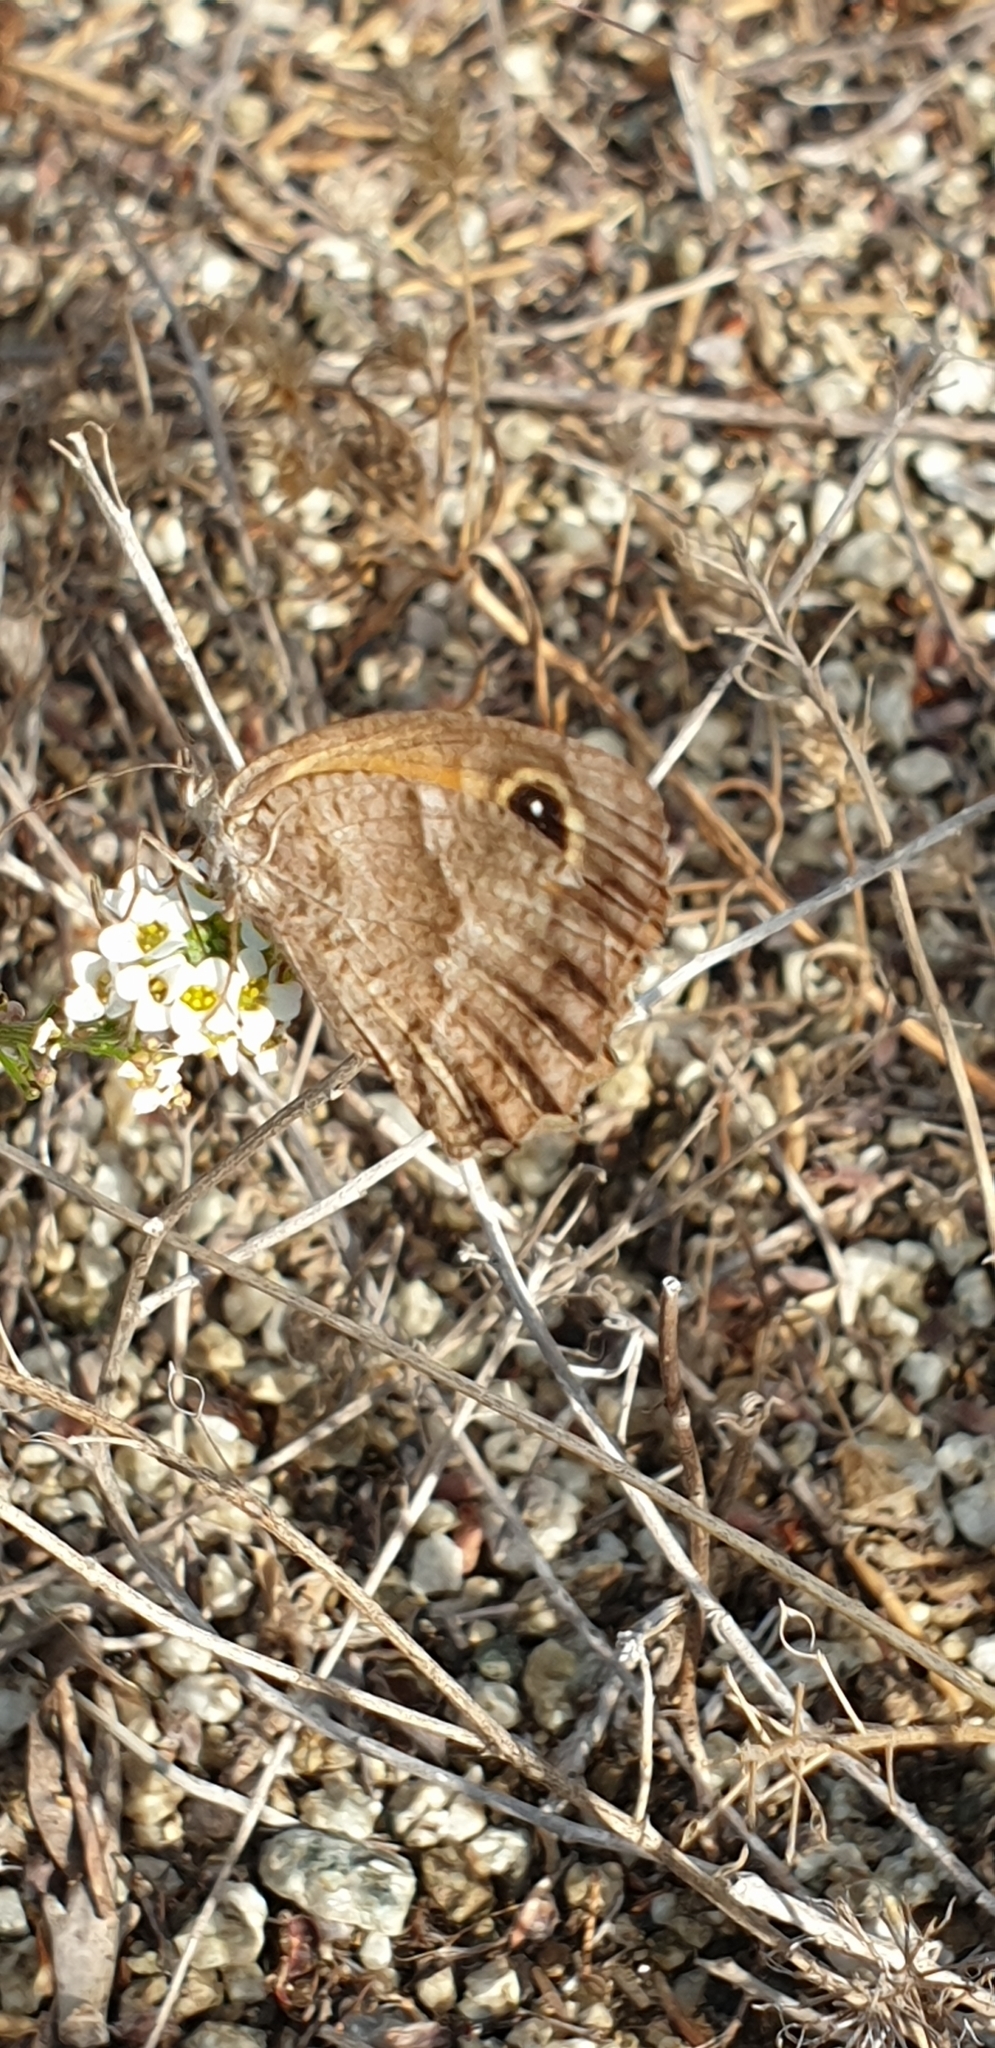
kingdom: Animalia
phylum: Arthropoda
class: Insecta
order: Lepidoptera
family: Nymphalidae
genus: Pyronia
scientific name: Pyronia cecilia
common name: Southern gatekeeper
